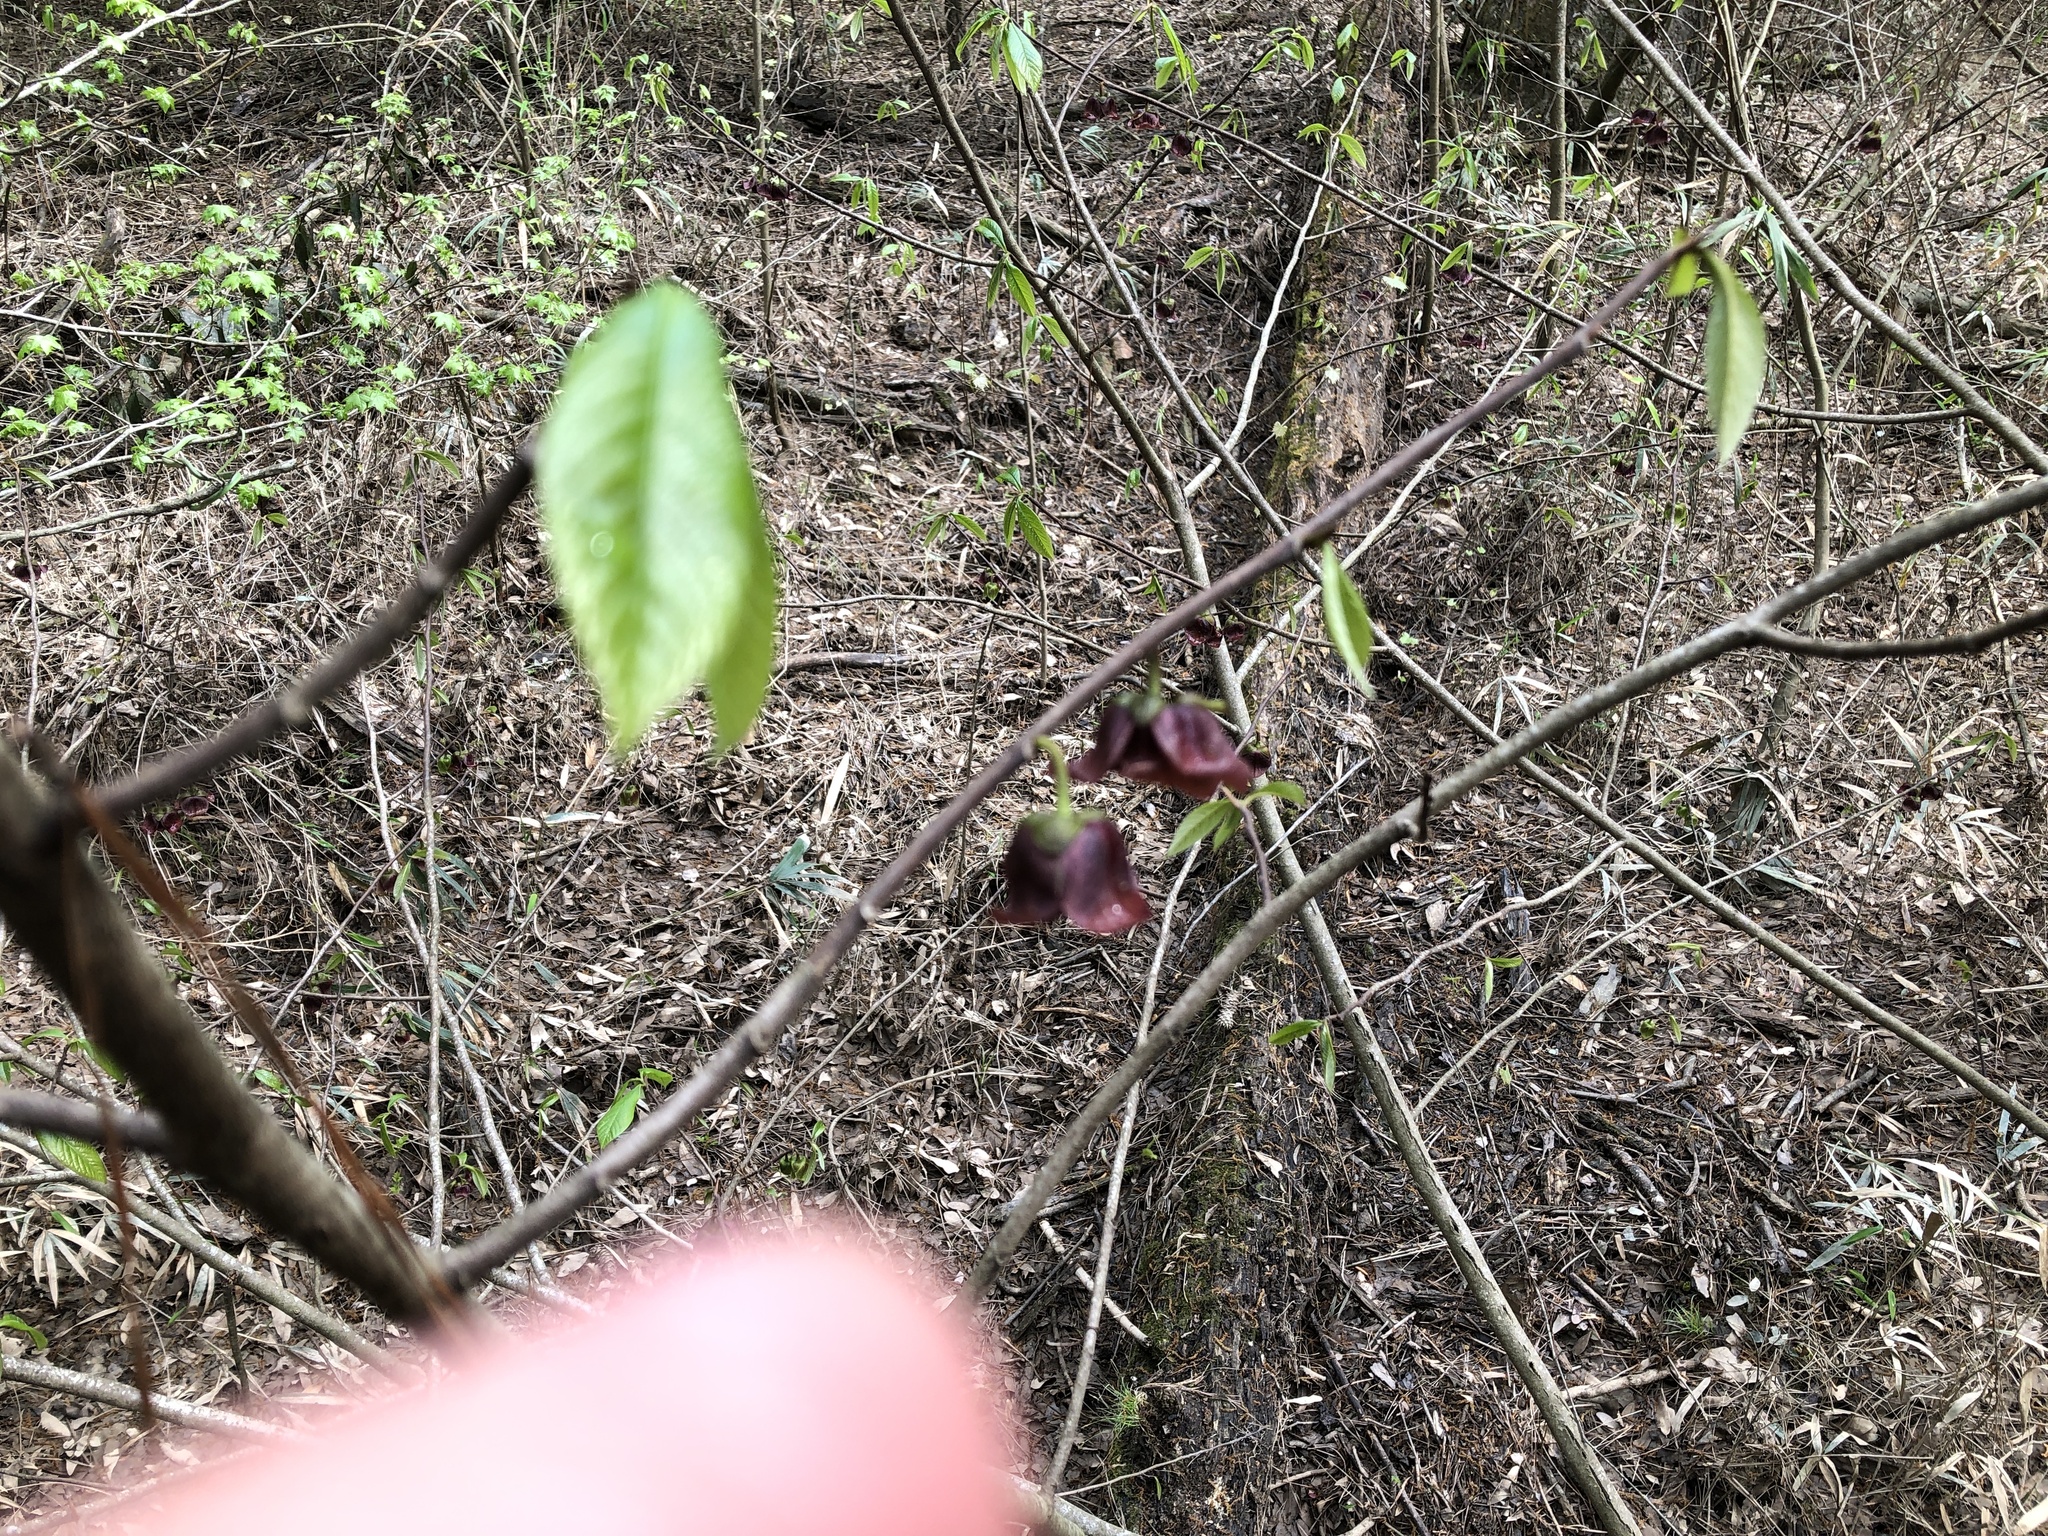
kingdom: Plantae
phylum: Tracheophyta
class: Magnoliopsida
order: Magnoliales
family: Annonaceae
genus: Asimina
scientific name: Asimina triloba
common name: Dog-banana
